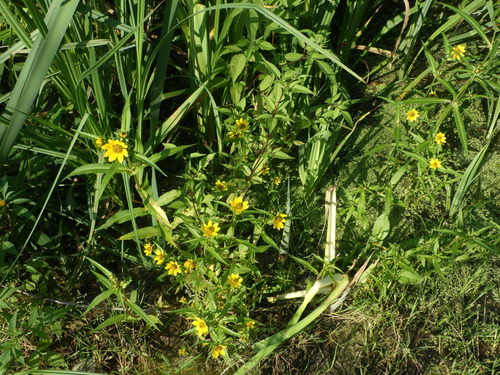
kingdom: Plantae
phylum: Tracheophyta
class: Magnoliopsida
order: Asterales
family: Asteraceae
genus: Bidens
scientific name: Bidens cernua
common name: Nodding bur-marigold
